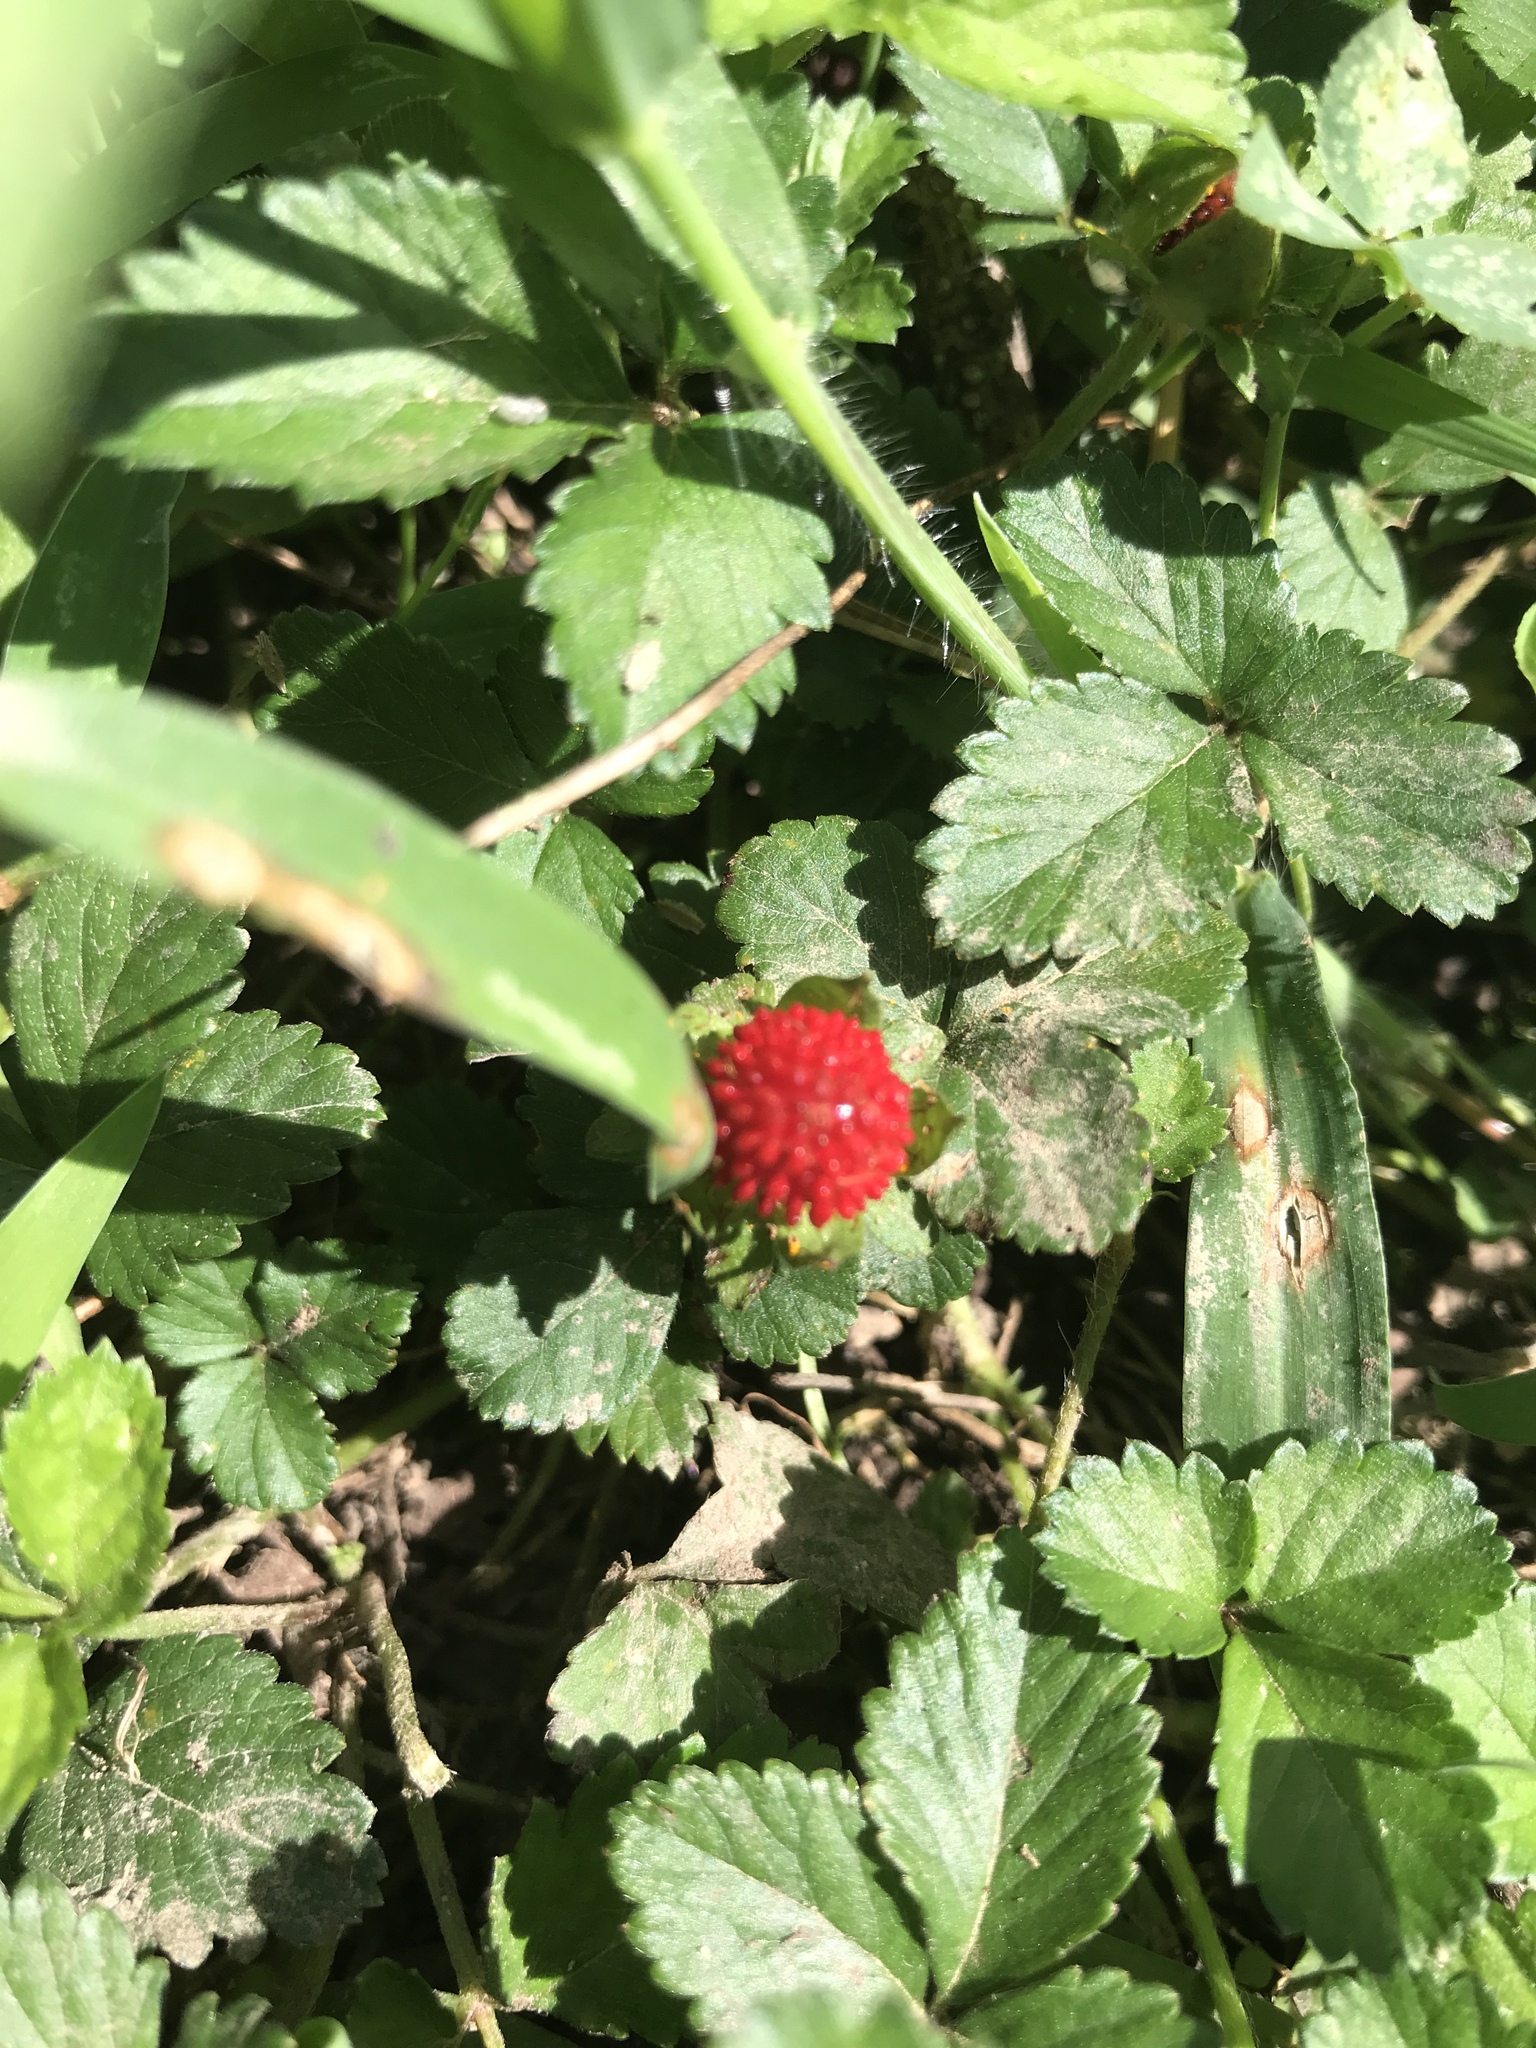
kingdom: Plantae
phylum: Tracheophyta
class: Magnoliopsida
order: Rosales
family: Rosaceae
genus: Potentilla
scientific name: Potentilla indica
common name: Yellow-flowered strawberry
